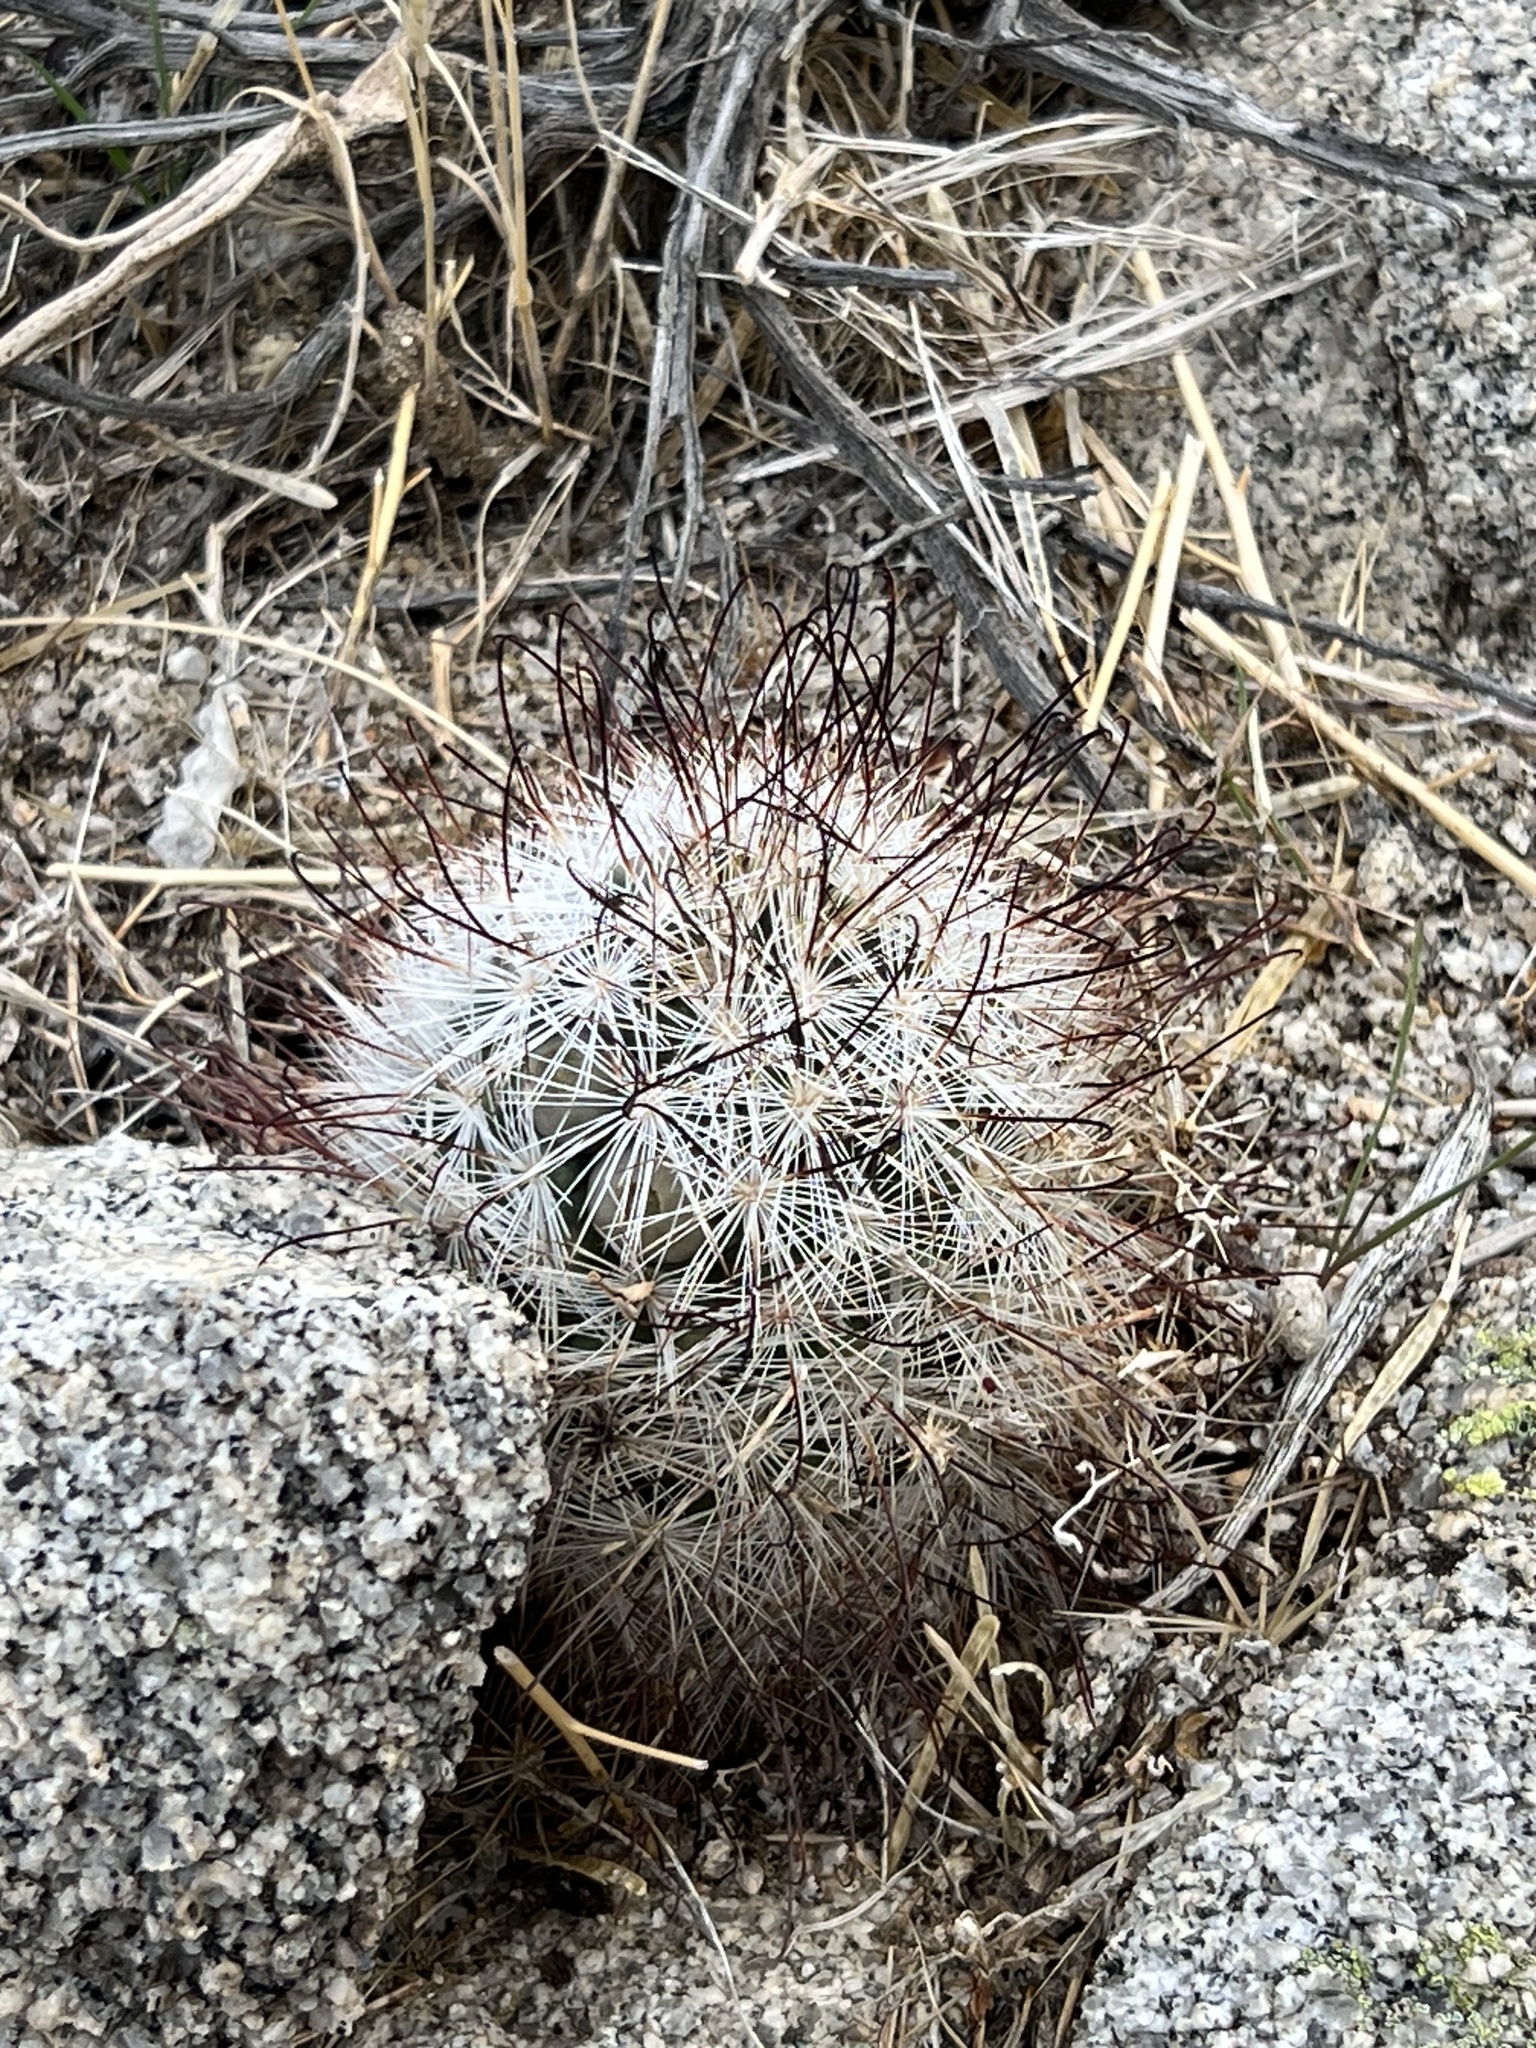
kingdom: Plantae
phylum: Tracheophyta
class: Magnoliopsida
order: Caryophyllales
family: Cactaceae
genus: Cochemiea
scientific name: Cochemiea tetrancistra
